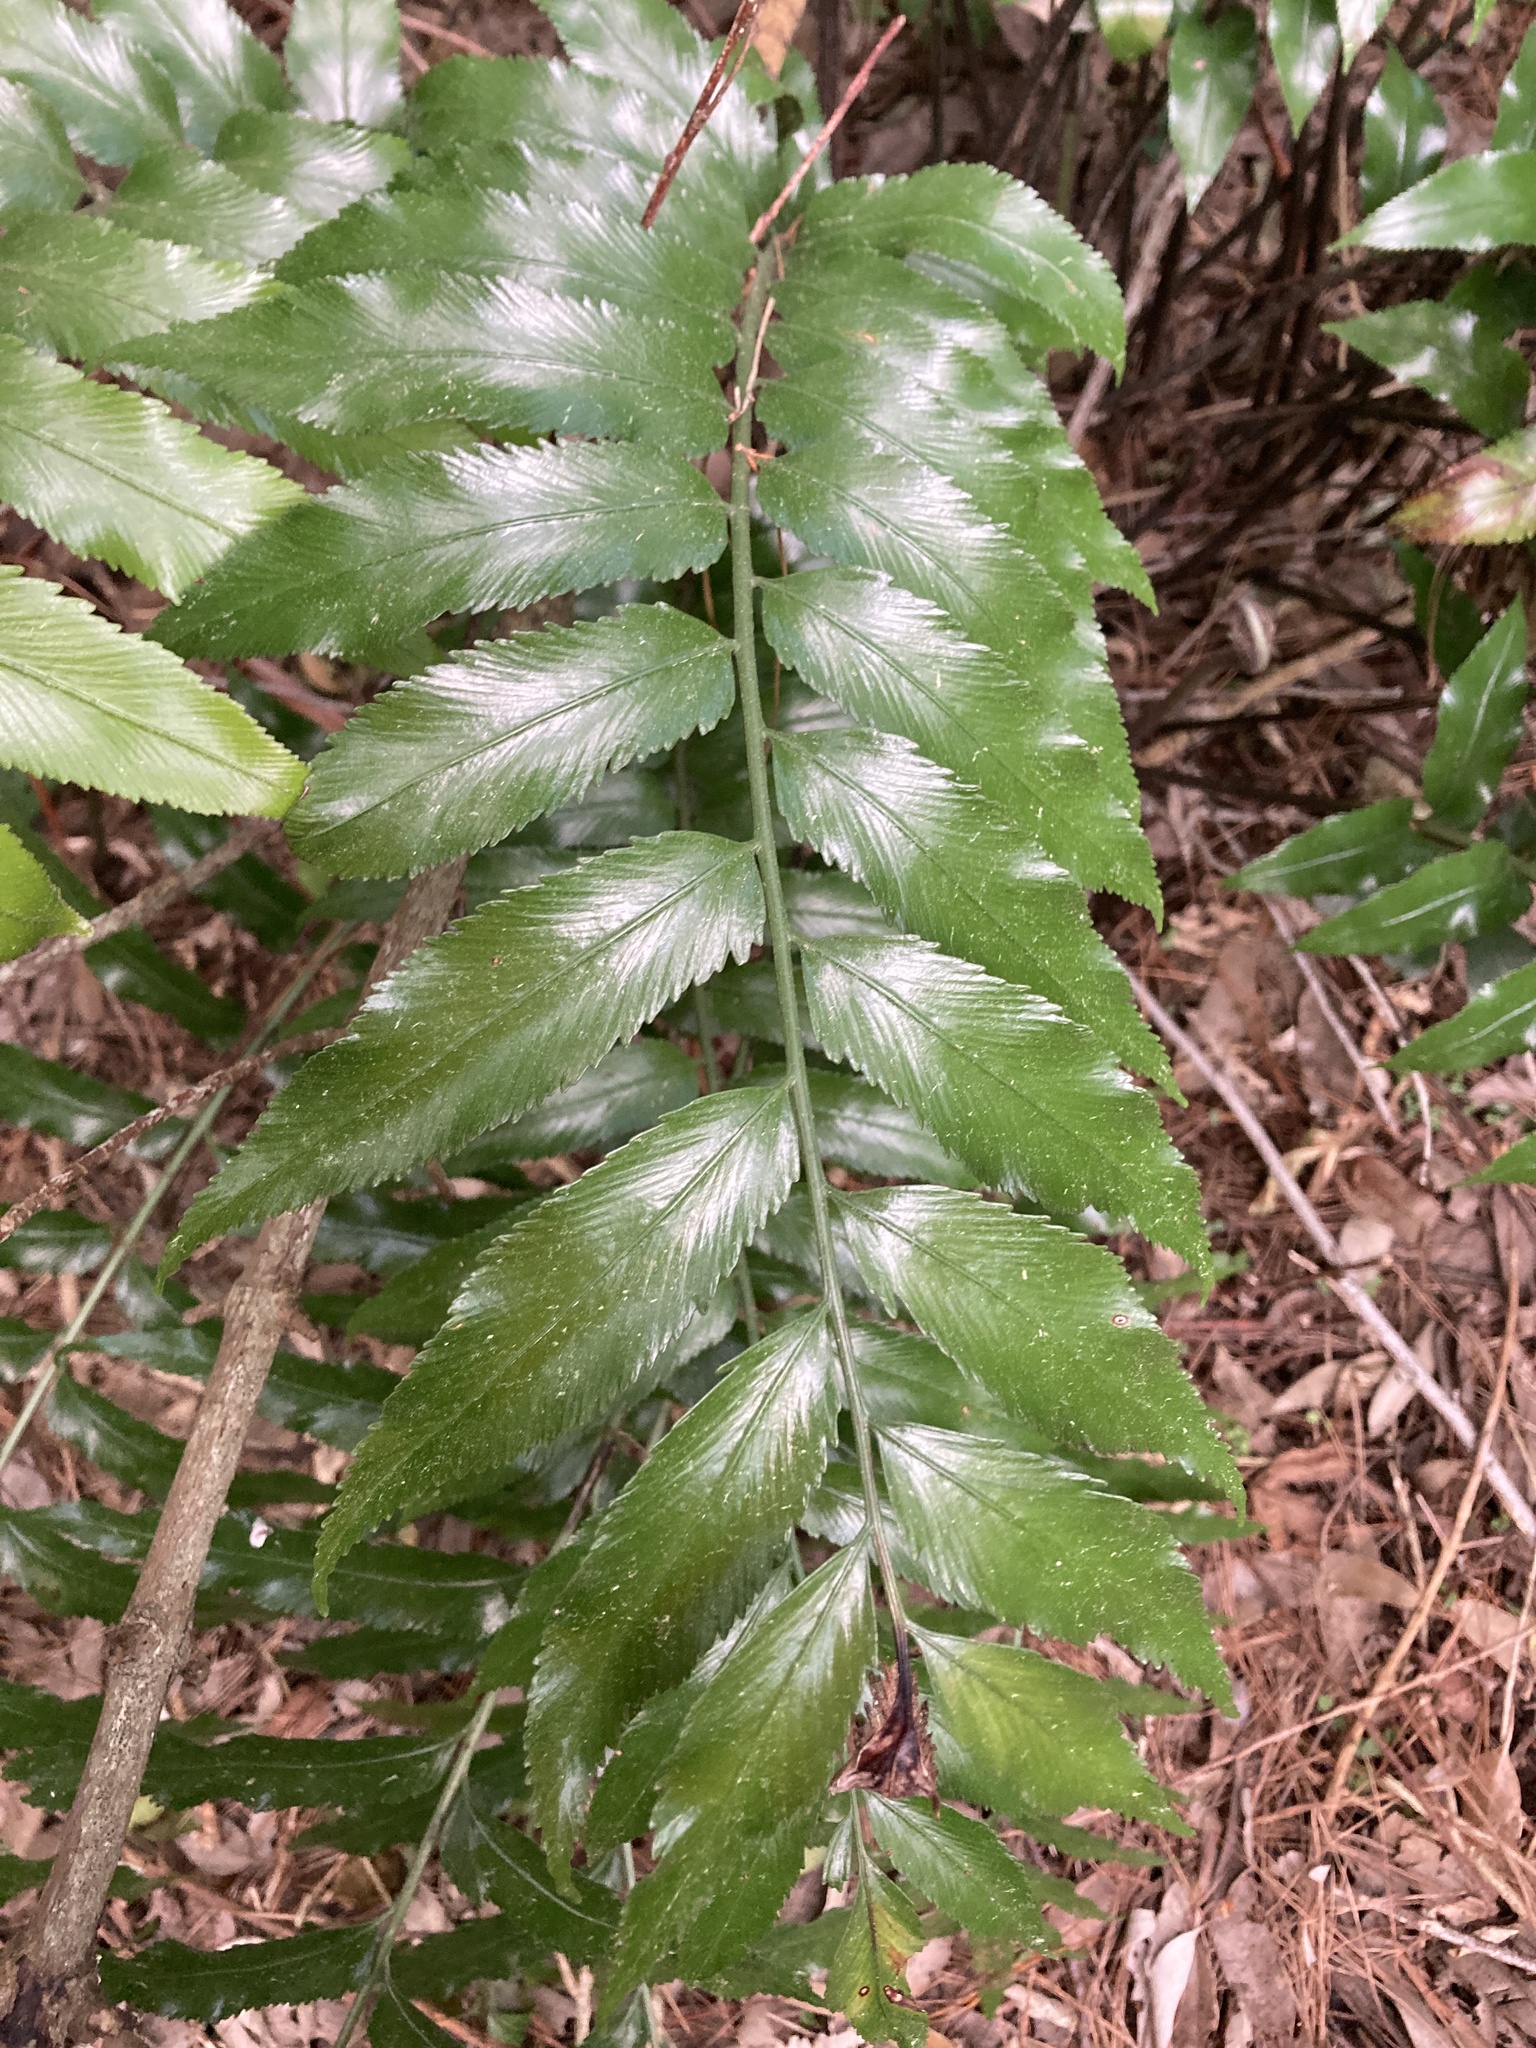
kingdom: Plantae
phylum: Tracheophyta
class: Polypodiopsida
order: Polypodiales
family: Aspleniaceae
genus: Asplenium
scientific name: Asplenium oblongifolium
